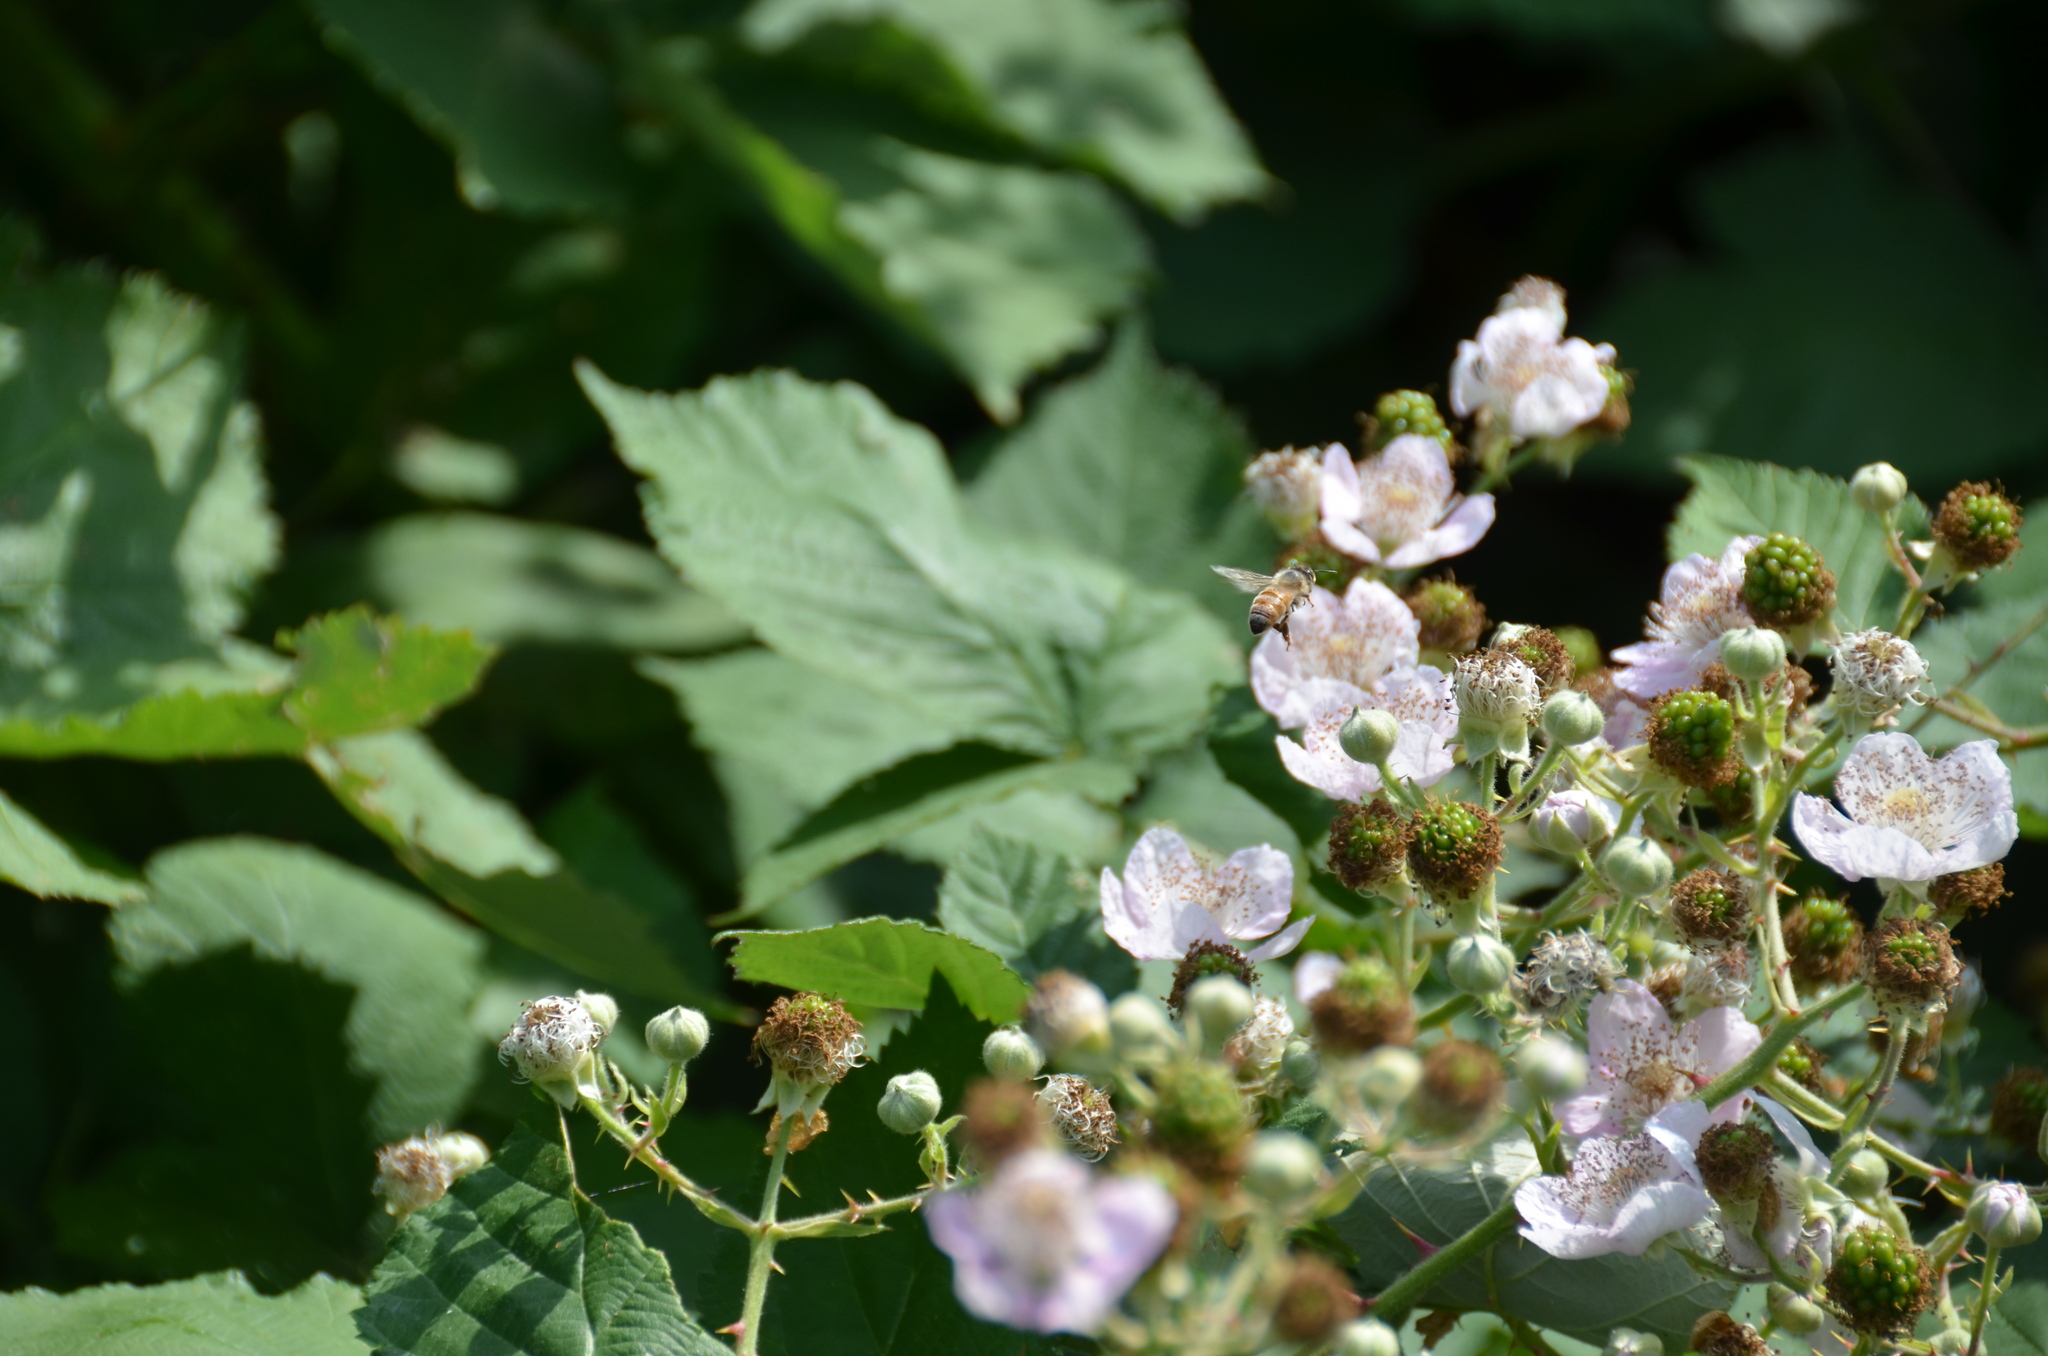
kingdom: Animalia
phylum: Arthropoda
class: Insecta
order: Hymenoptera
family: Apidae
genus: Apis
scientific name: Apis mellifera
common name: Honey bee
